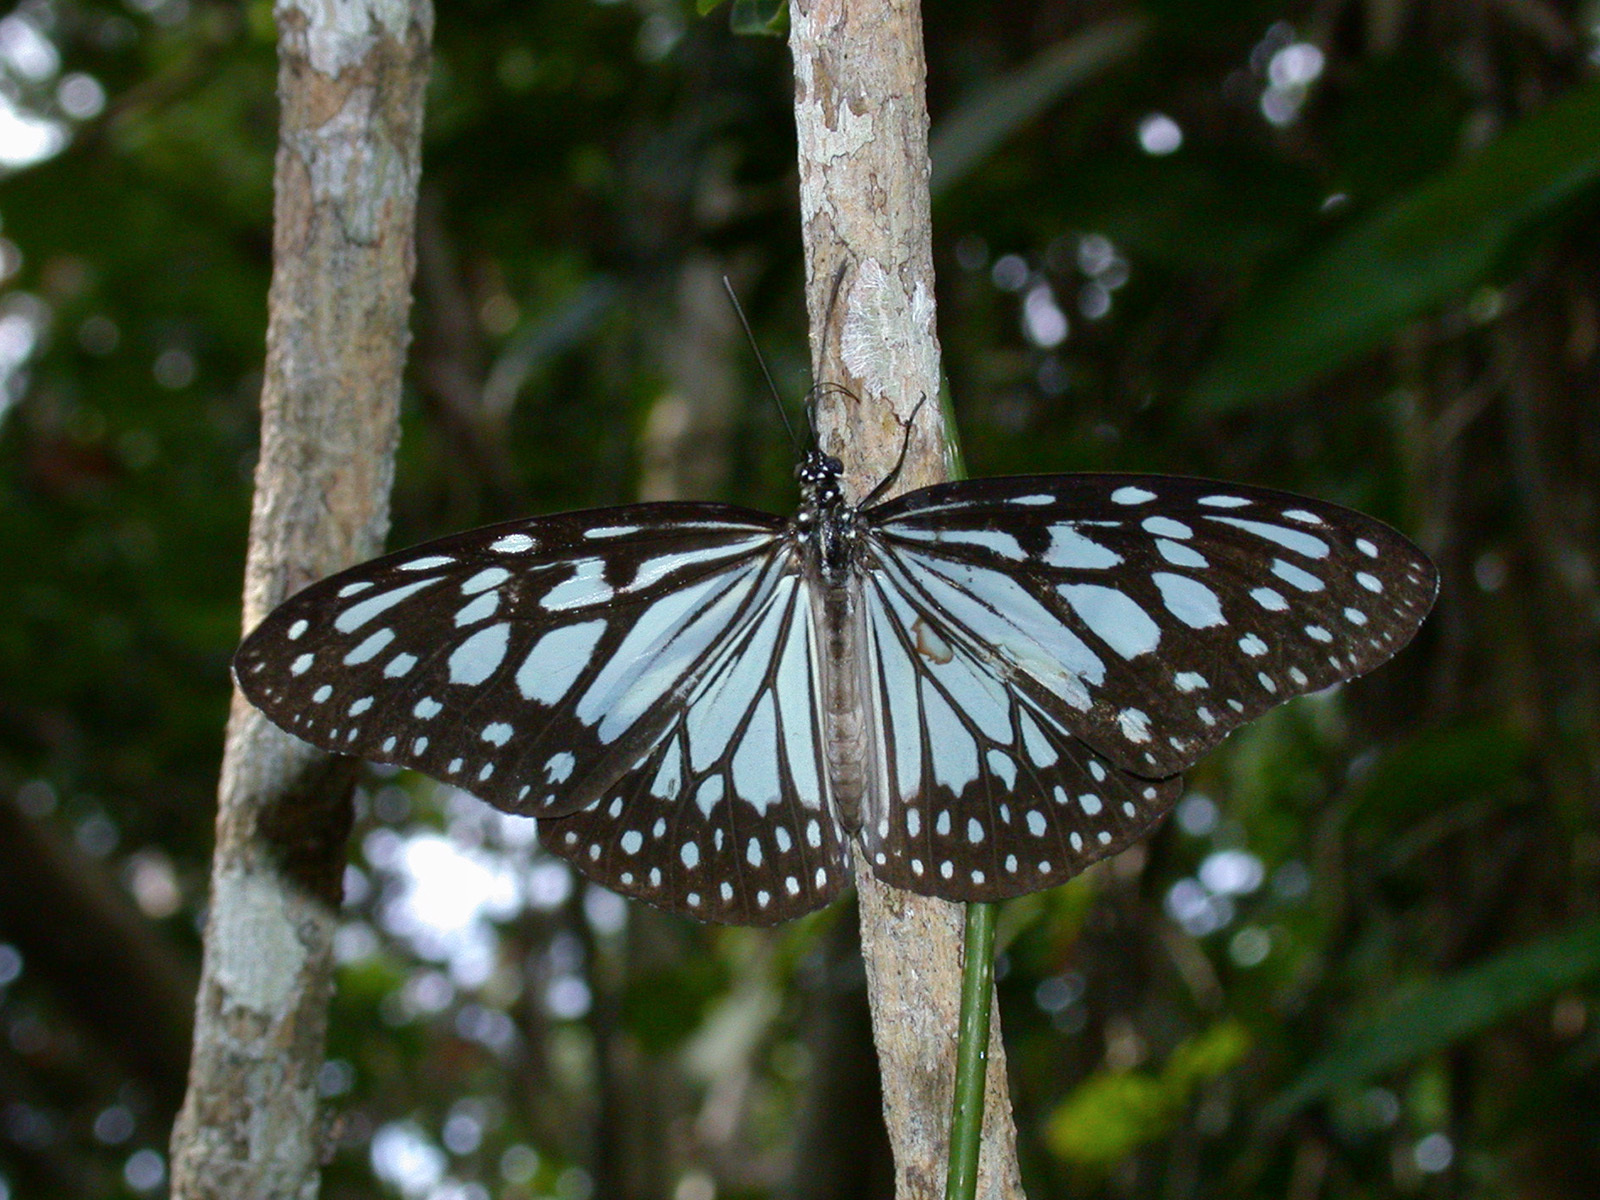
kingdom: Animalia
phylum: Arthropoda
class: Insecta
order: Lepidoptera
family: Nymphalidae
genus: Ideopsis
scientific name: Ideopsis juventa
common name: Grey glassy tiger
